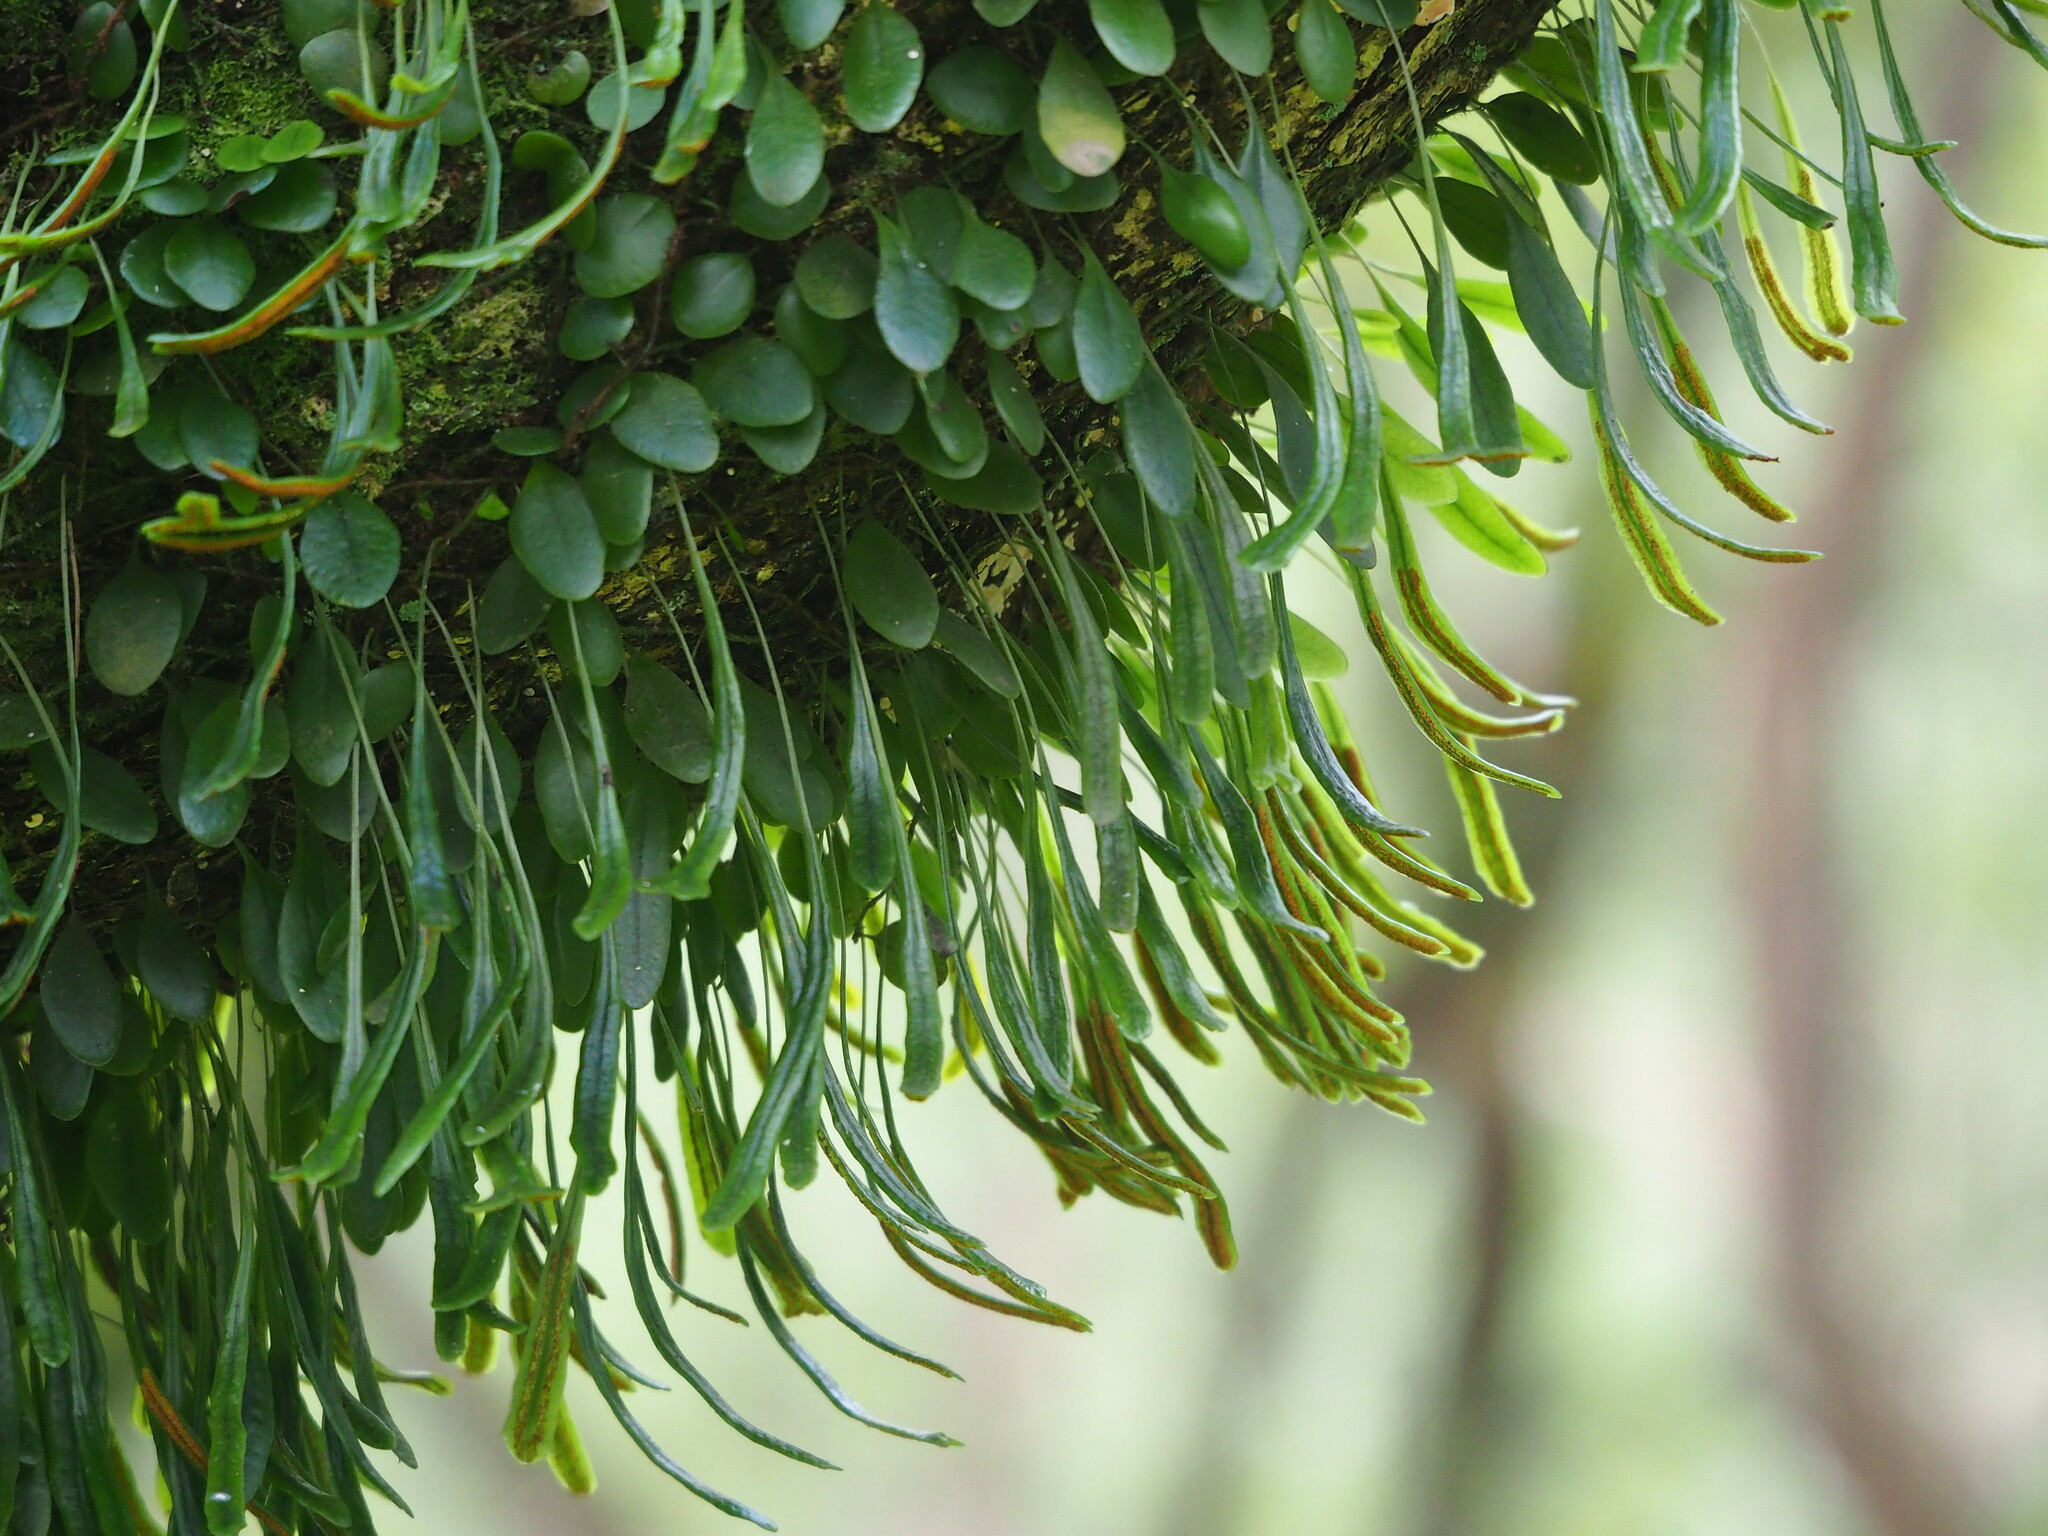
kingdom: Plantae
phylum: Tracheophyta
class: Polypodiopsida
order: Polypodiales
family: Polypodiaceae
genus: Lepisorus
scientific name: Lepisorus microphyllus
